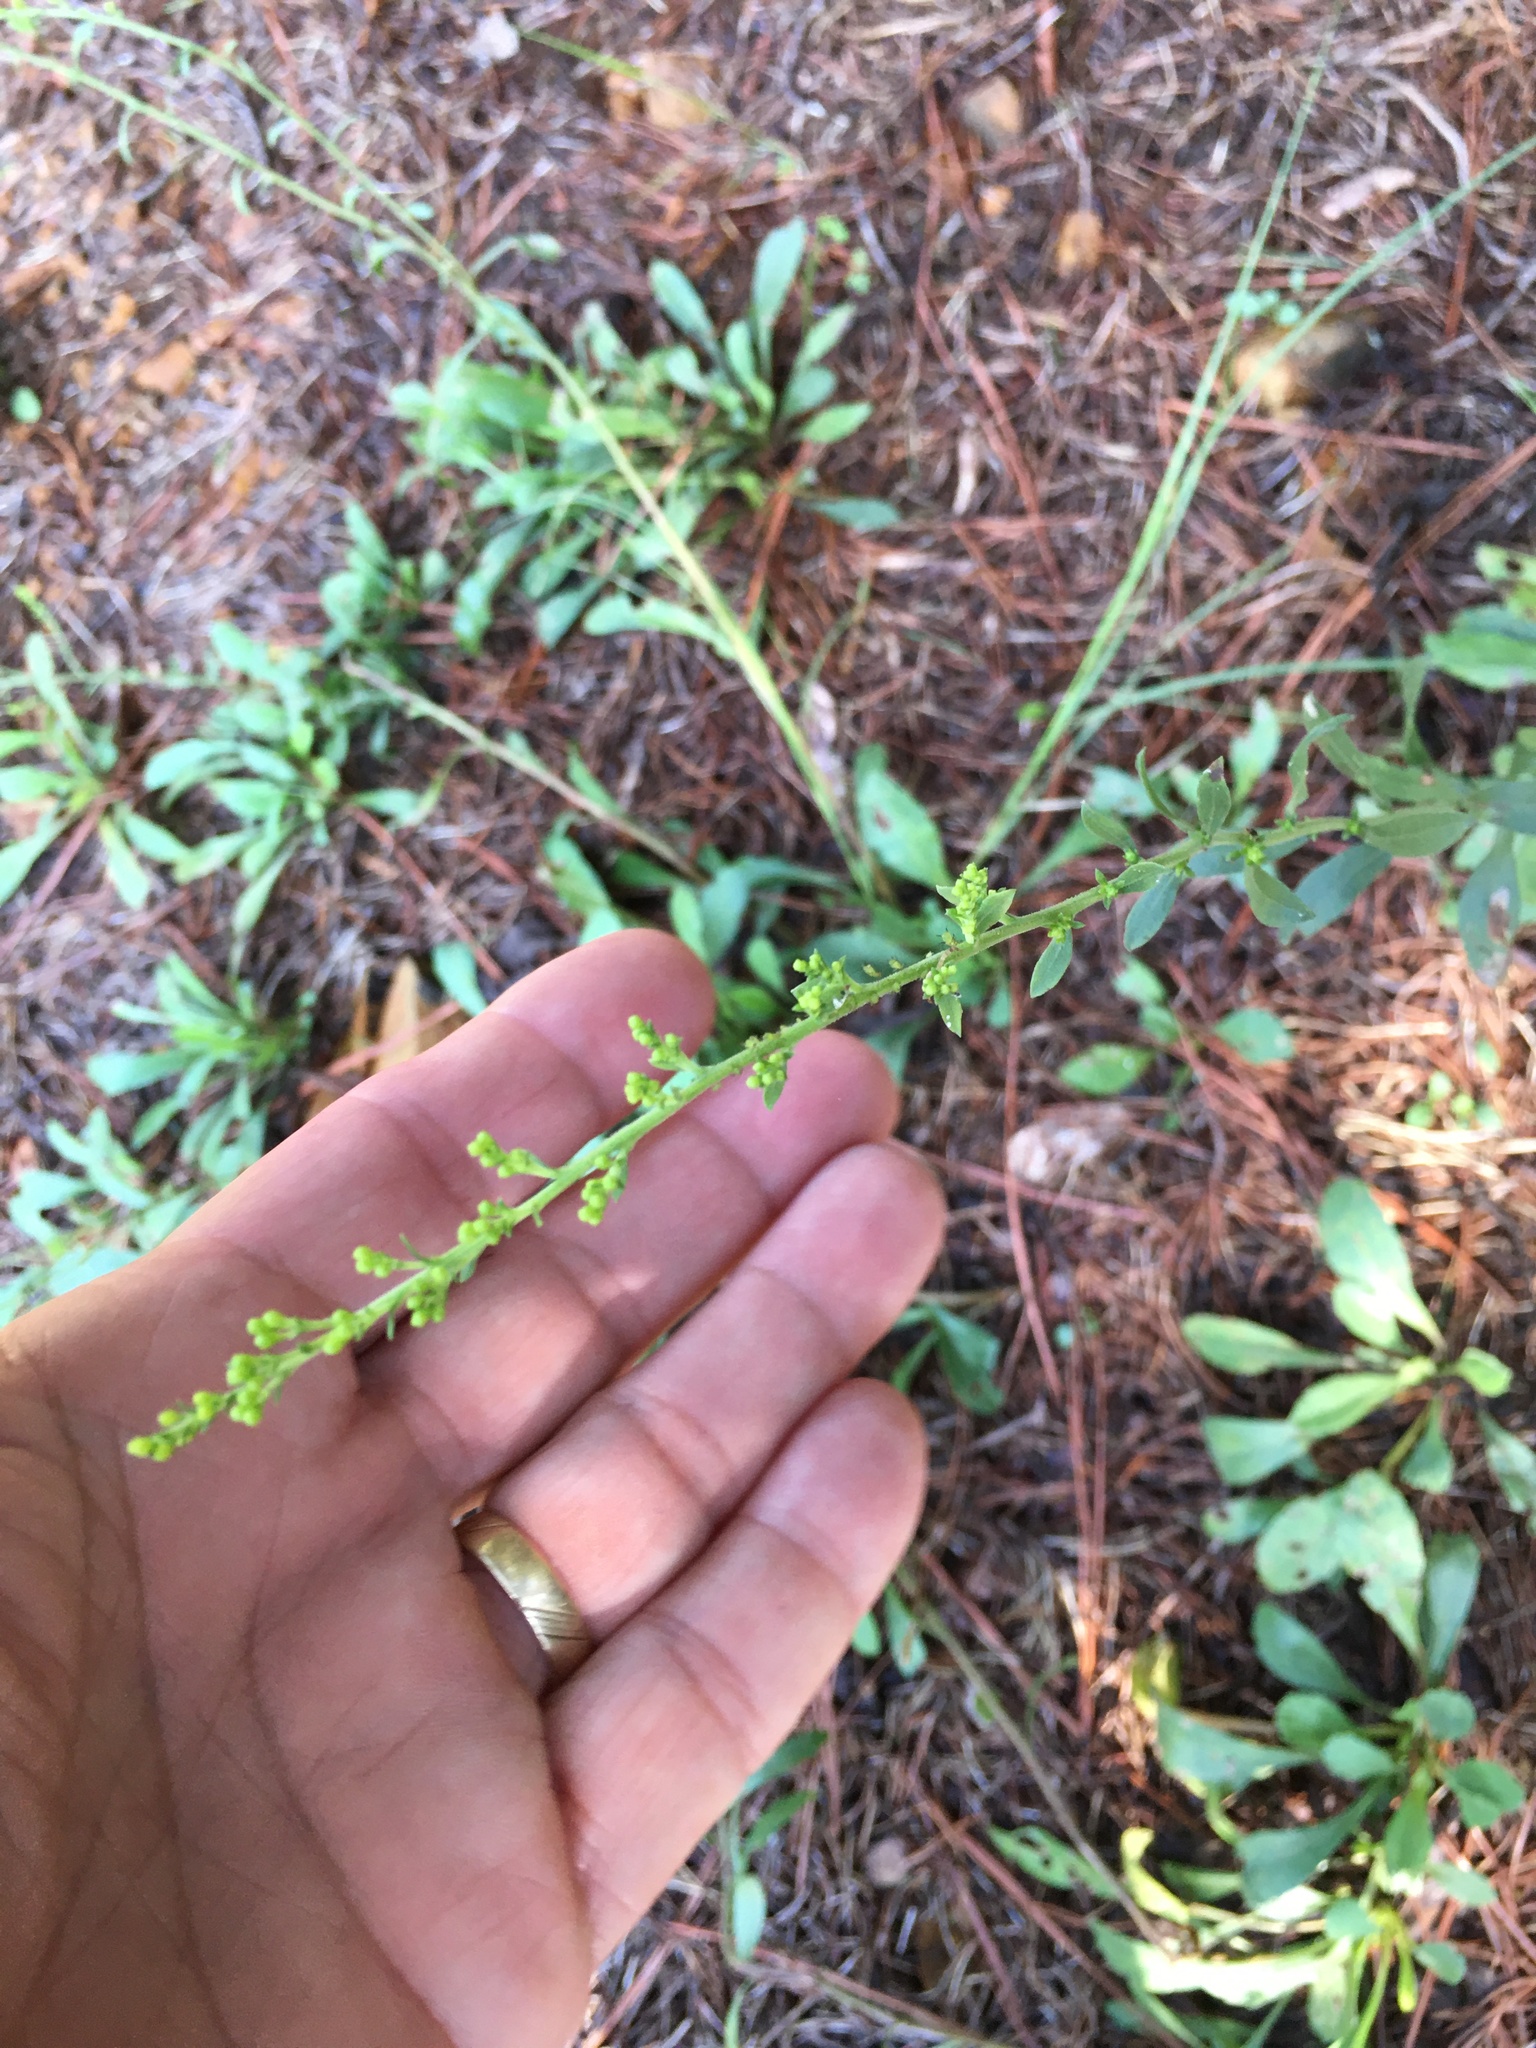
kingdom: Plantae
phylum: Tracheophyta
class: Magnoliopsida
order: Asterales
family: Asteraceae
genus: Solidago
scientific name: Solidago nemoralis
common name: Grey goldenrod
